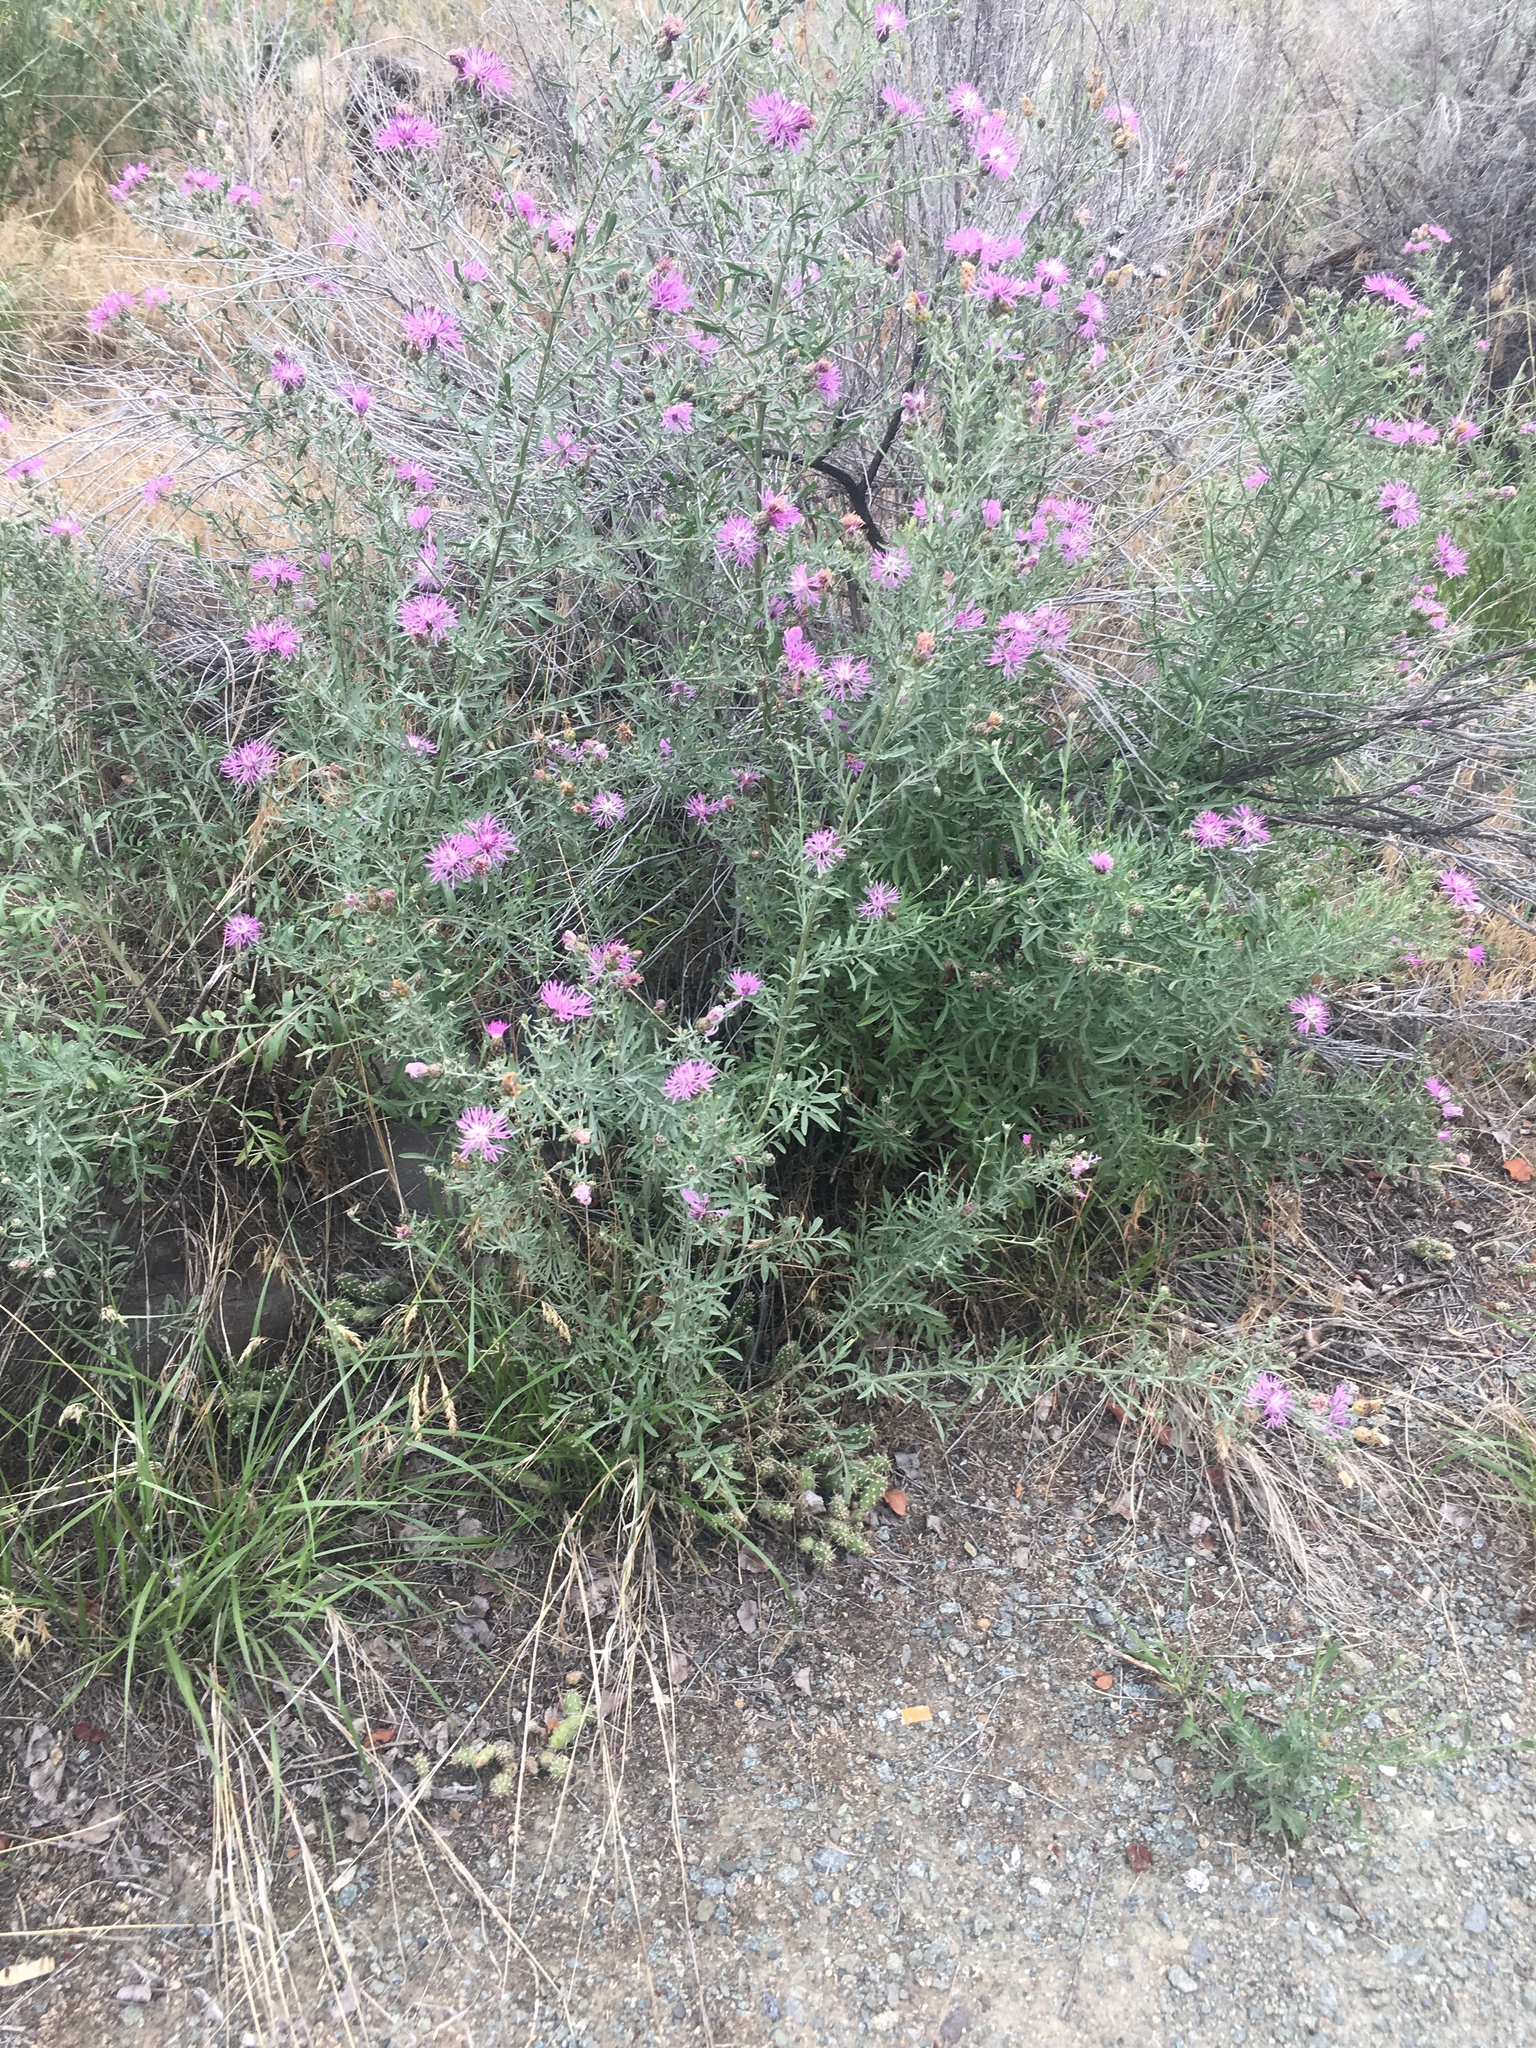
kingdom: Plantae
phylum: Tracheophyta
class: Magnoliopsida
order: Asterales
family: Asteraceae
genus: Centaurea
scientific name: Centaurea stoebe
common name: Spotted knapweed
